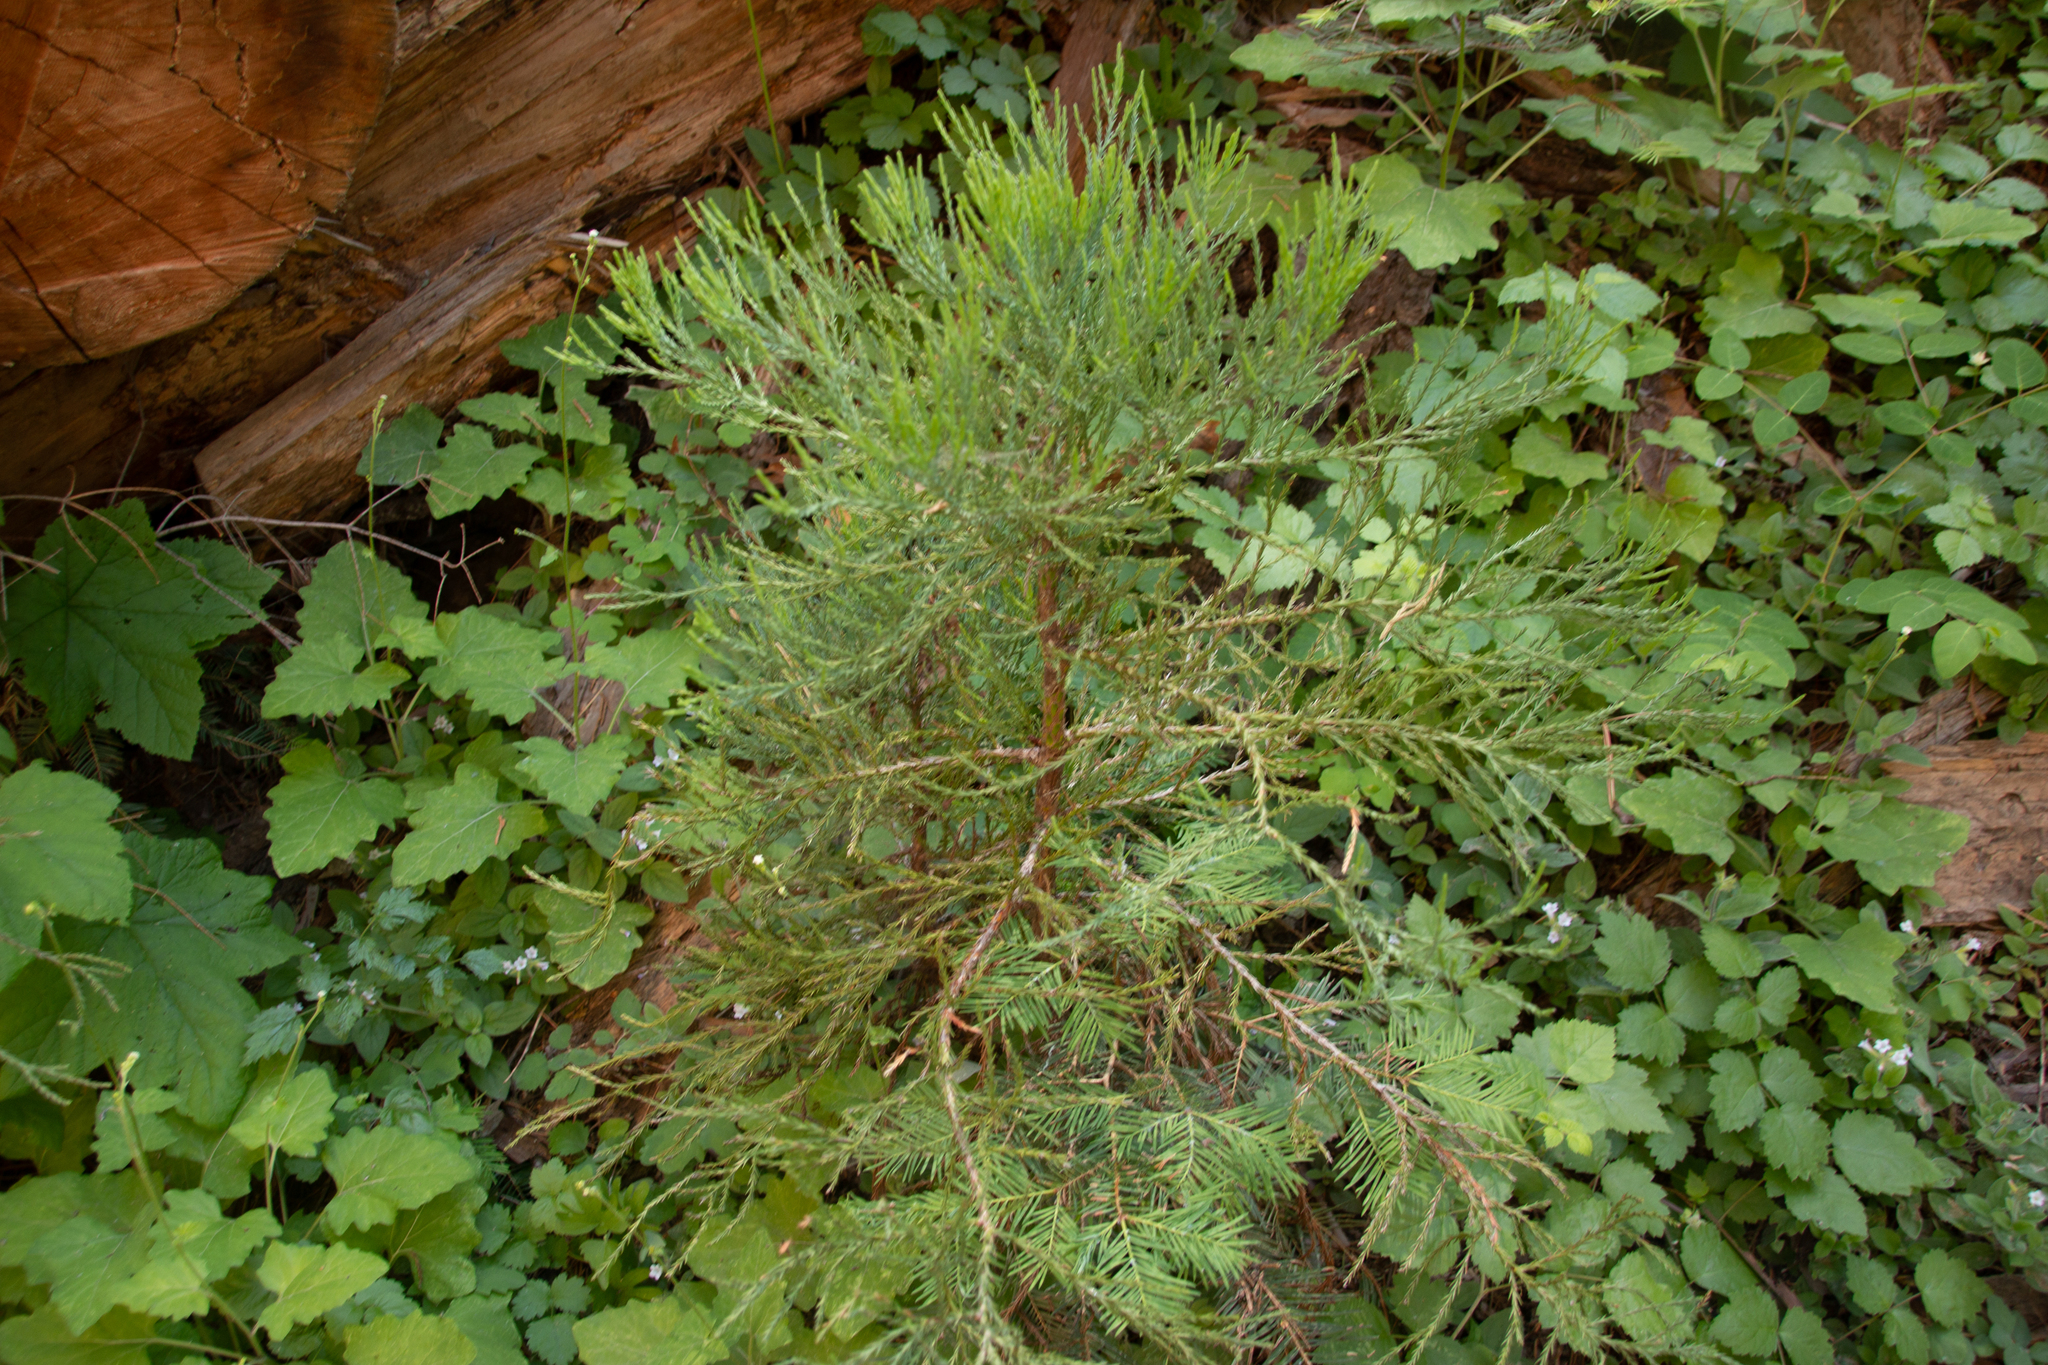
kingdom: Plantae
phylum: Tracheophyta
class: Pinopsida
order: Pinales
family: Cupressaceae
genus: Sequoiadendron
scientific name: Sequoiadendron giganteum
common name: Wellingtonia
